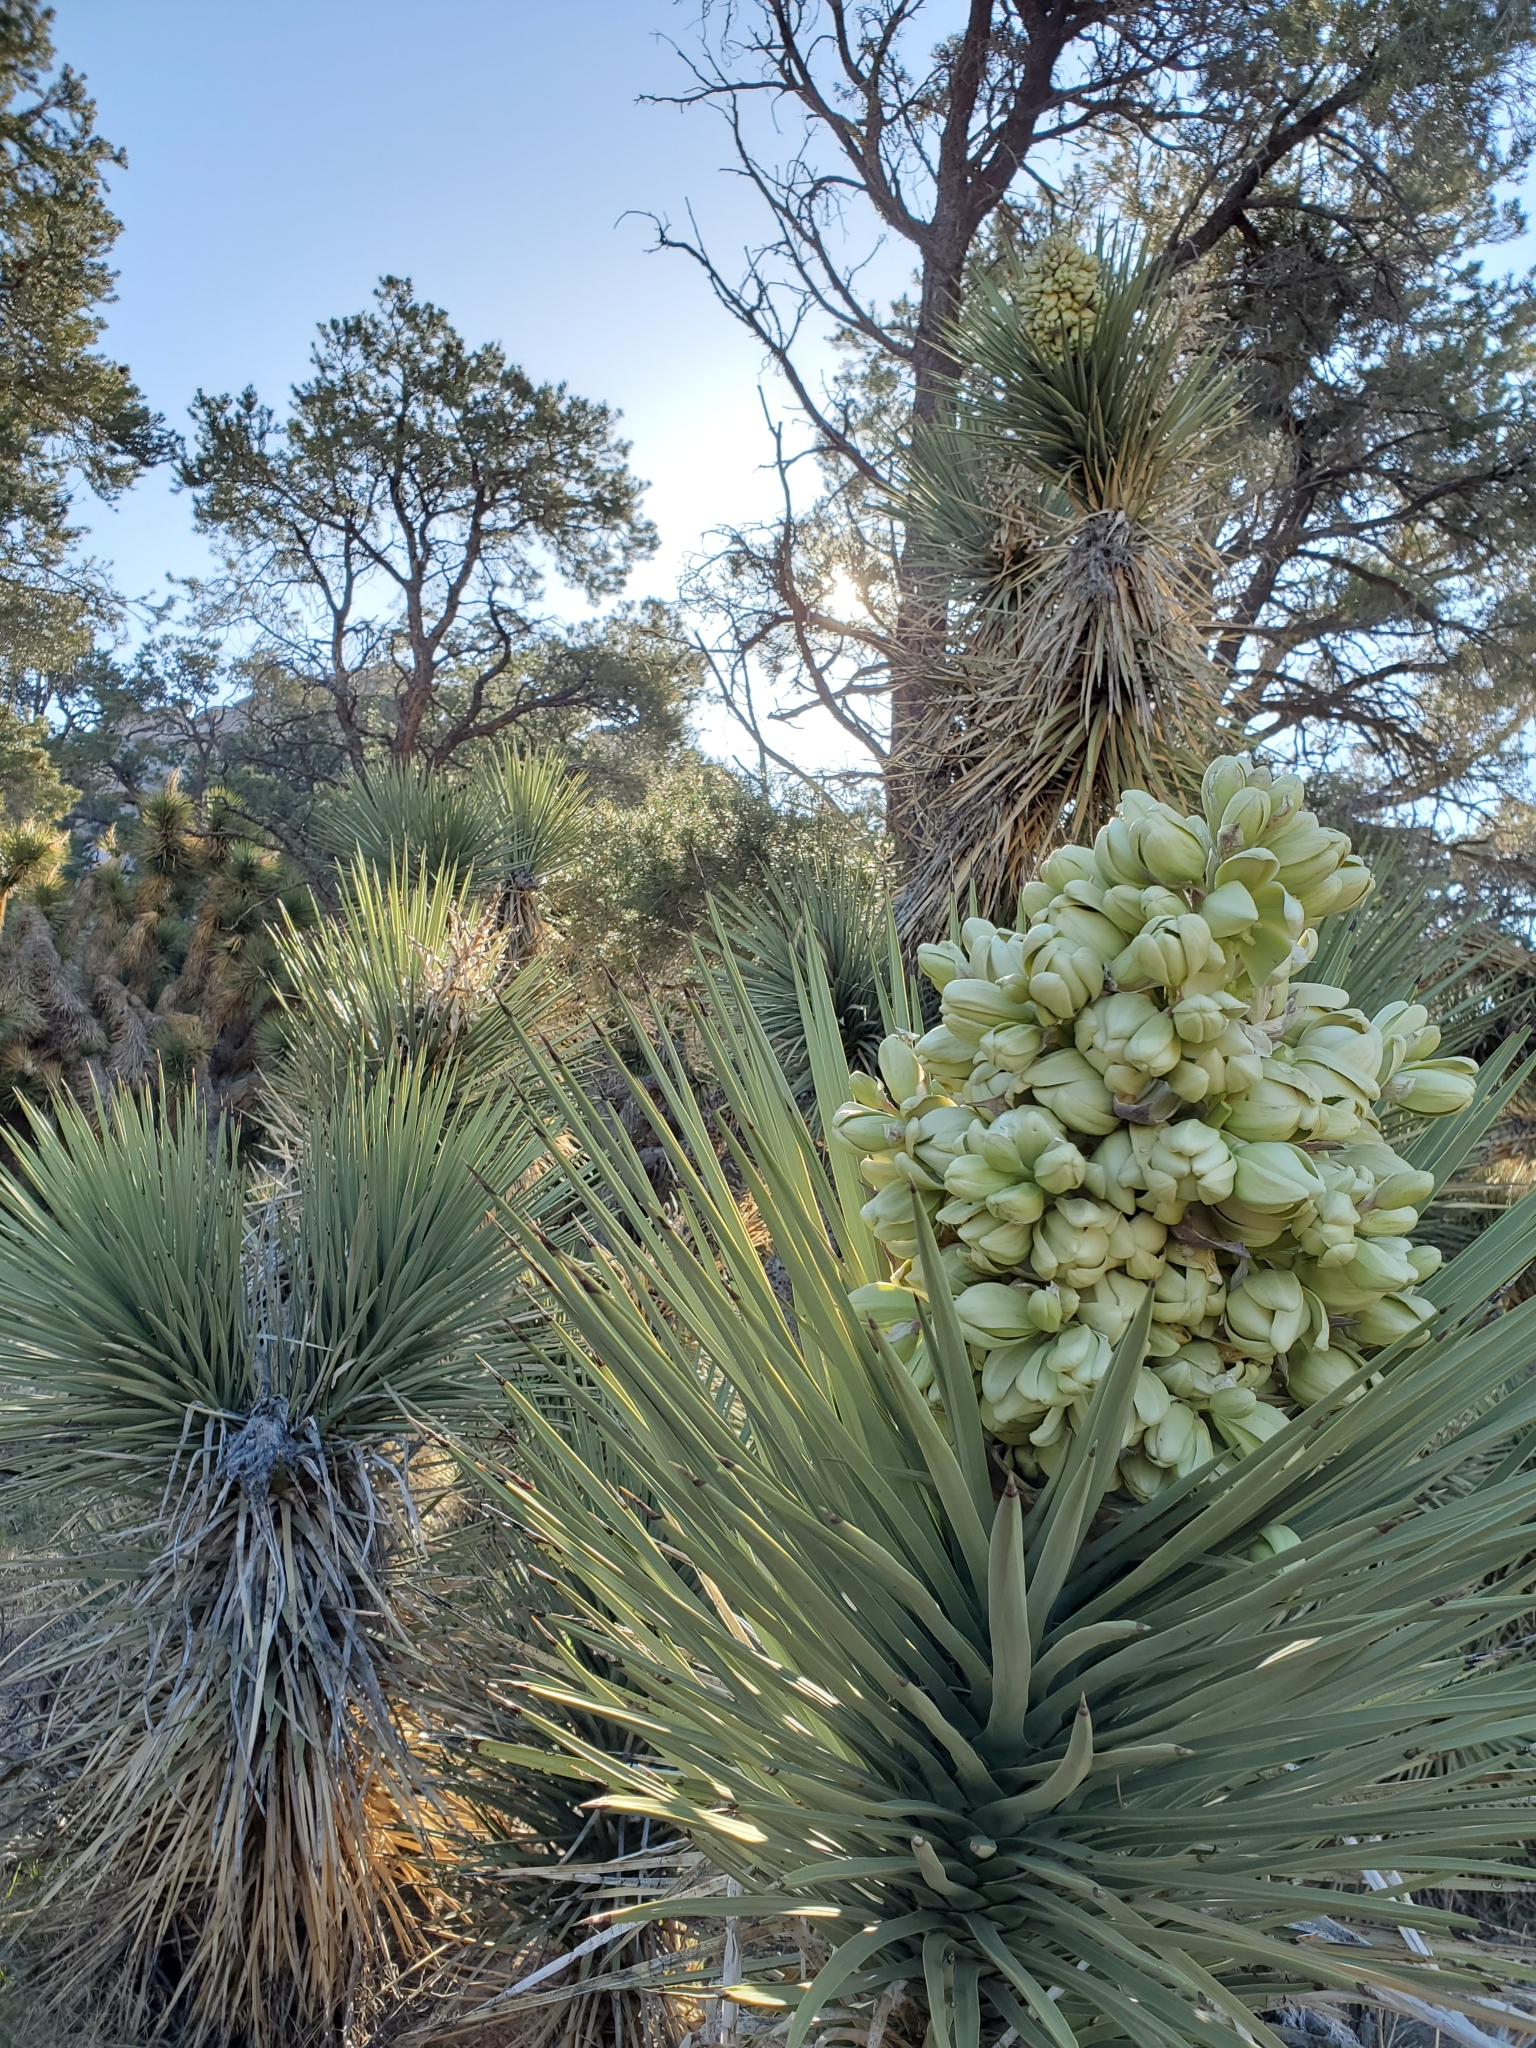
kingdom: Plantae
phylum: Tracheophyta
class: Liliopsida
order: Asparagales
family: Asparagaceae
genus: Yucca
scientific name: Yucca brevifolia
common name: Joshua tree
